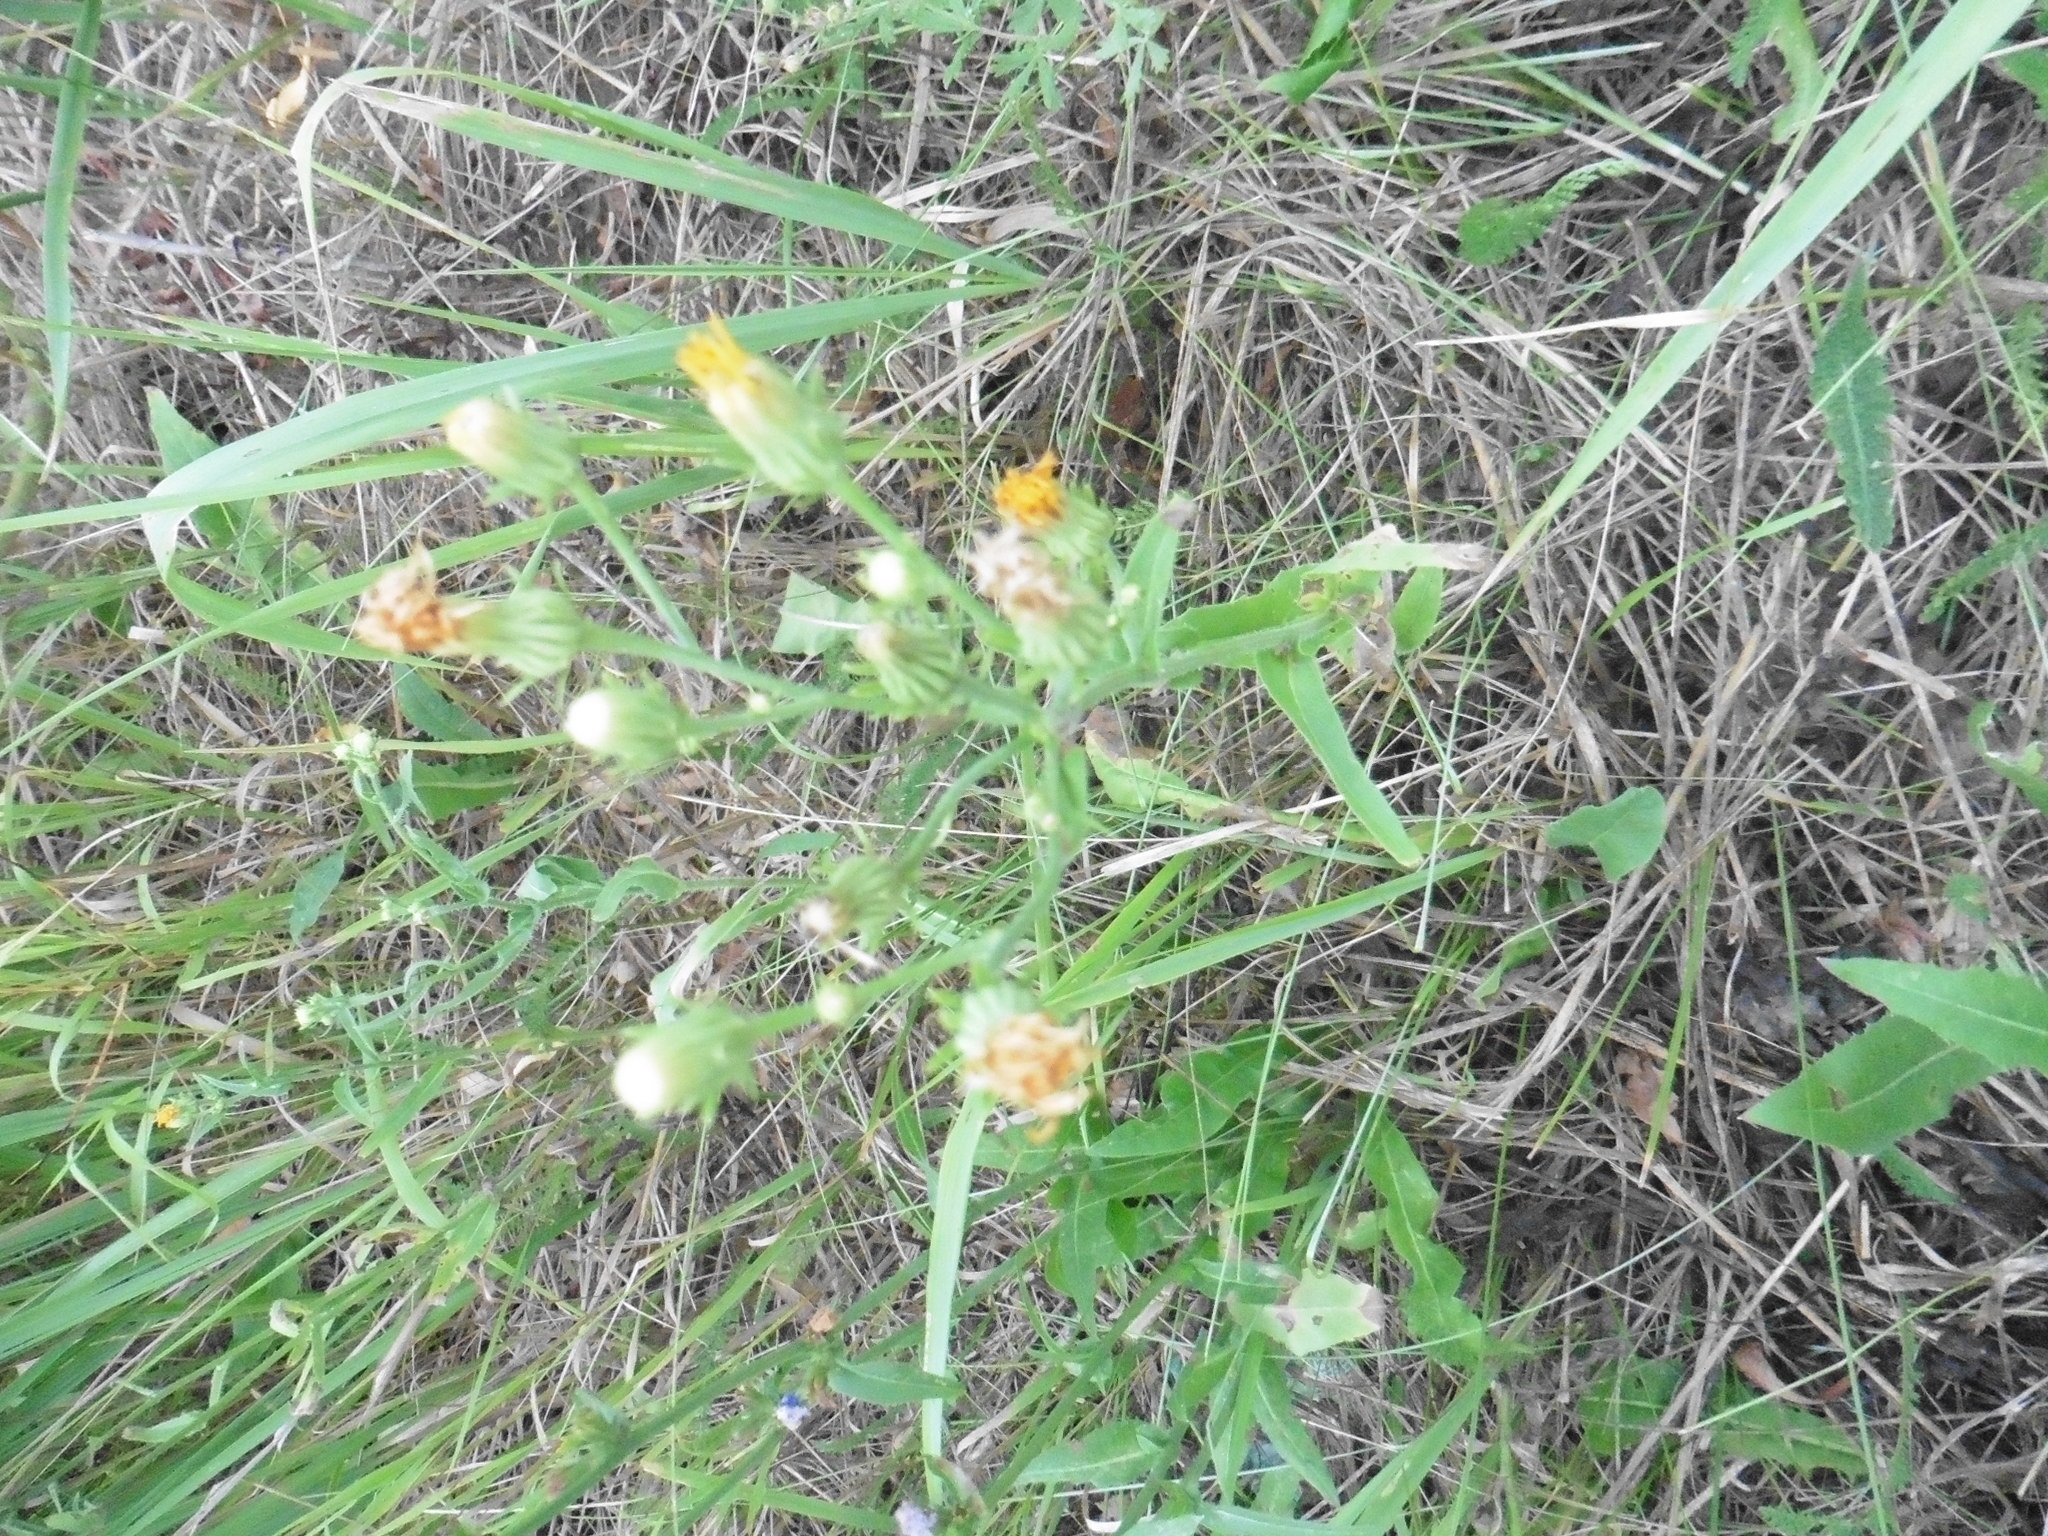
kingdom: Plantae
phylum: Tracheophyta
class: Magnoliopsida
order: Asterales
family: Asteraceae
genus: Picris
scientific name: Picris hieracioides
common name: Hawkweed oxtongue
